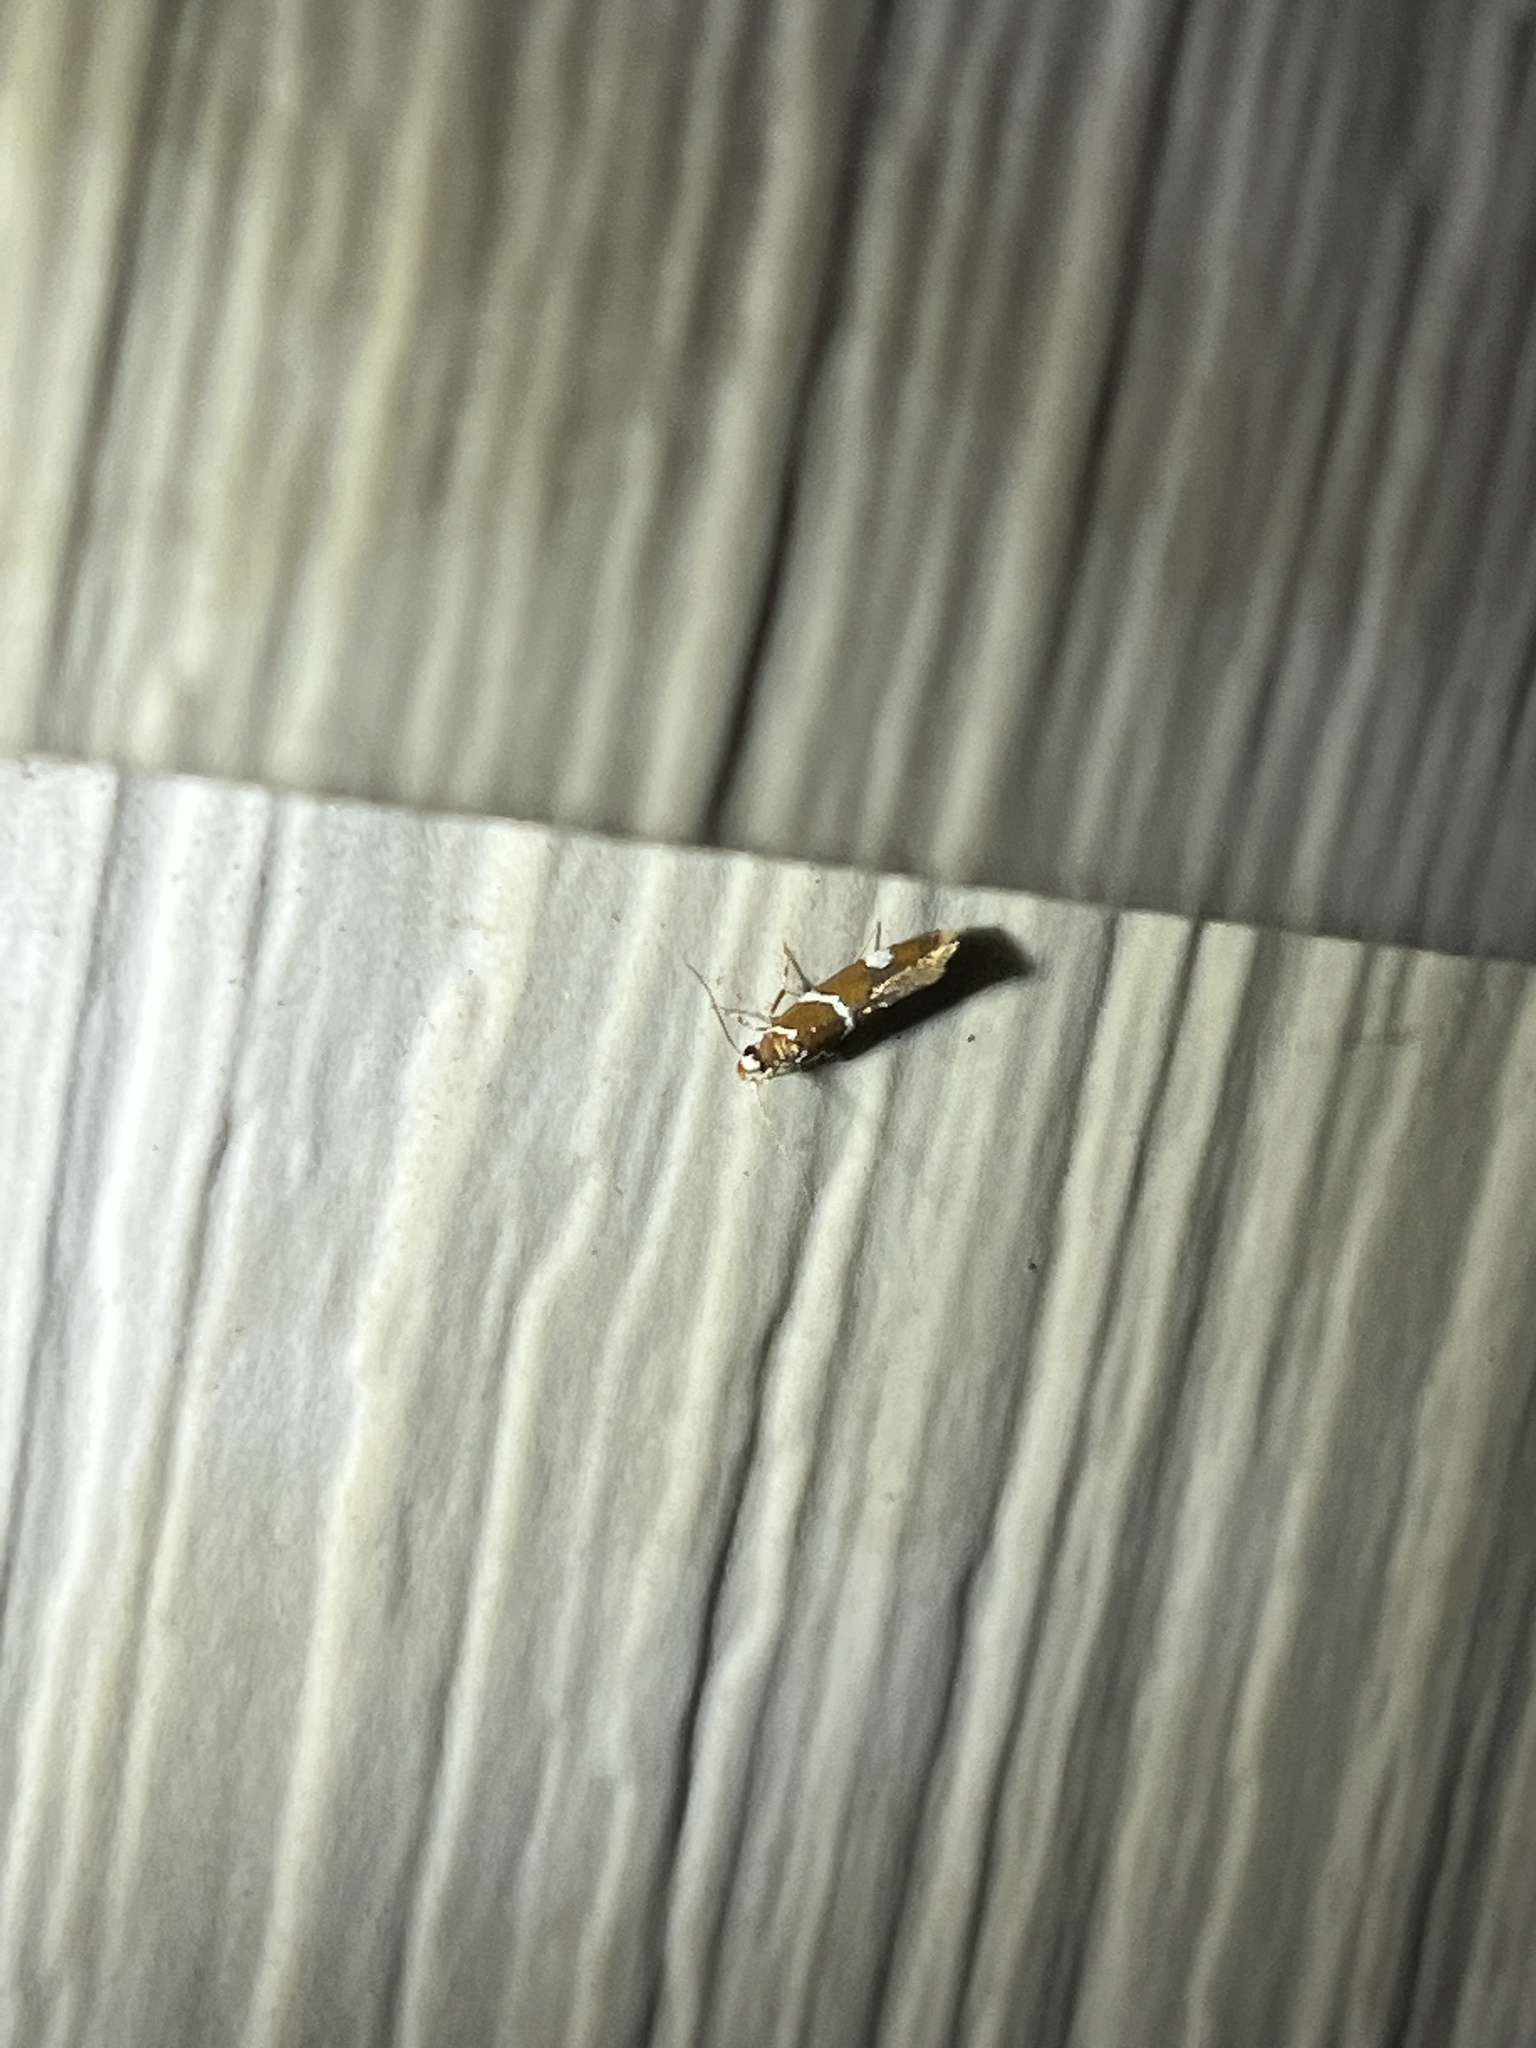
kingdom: Animalia
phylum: Arthropoda
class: Insecta
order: Lepidoptera
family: Oecophoridae
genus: Promalactis
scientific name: Promalactis suzukiella
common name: Moth
